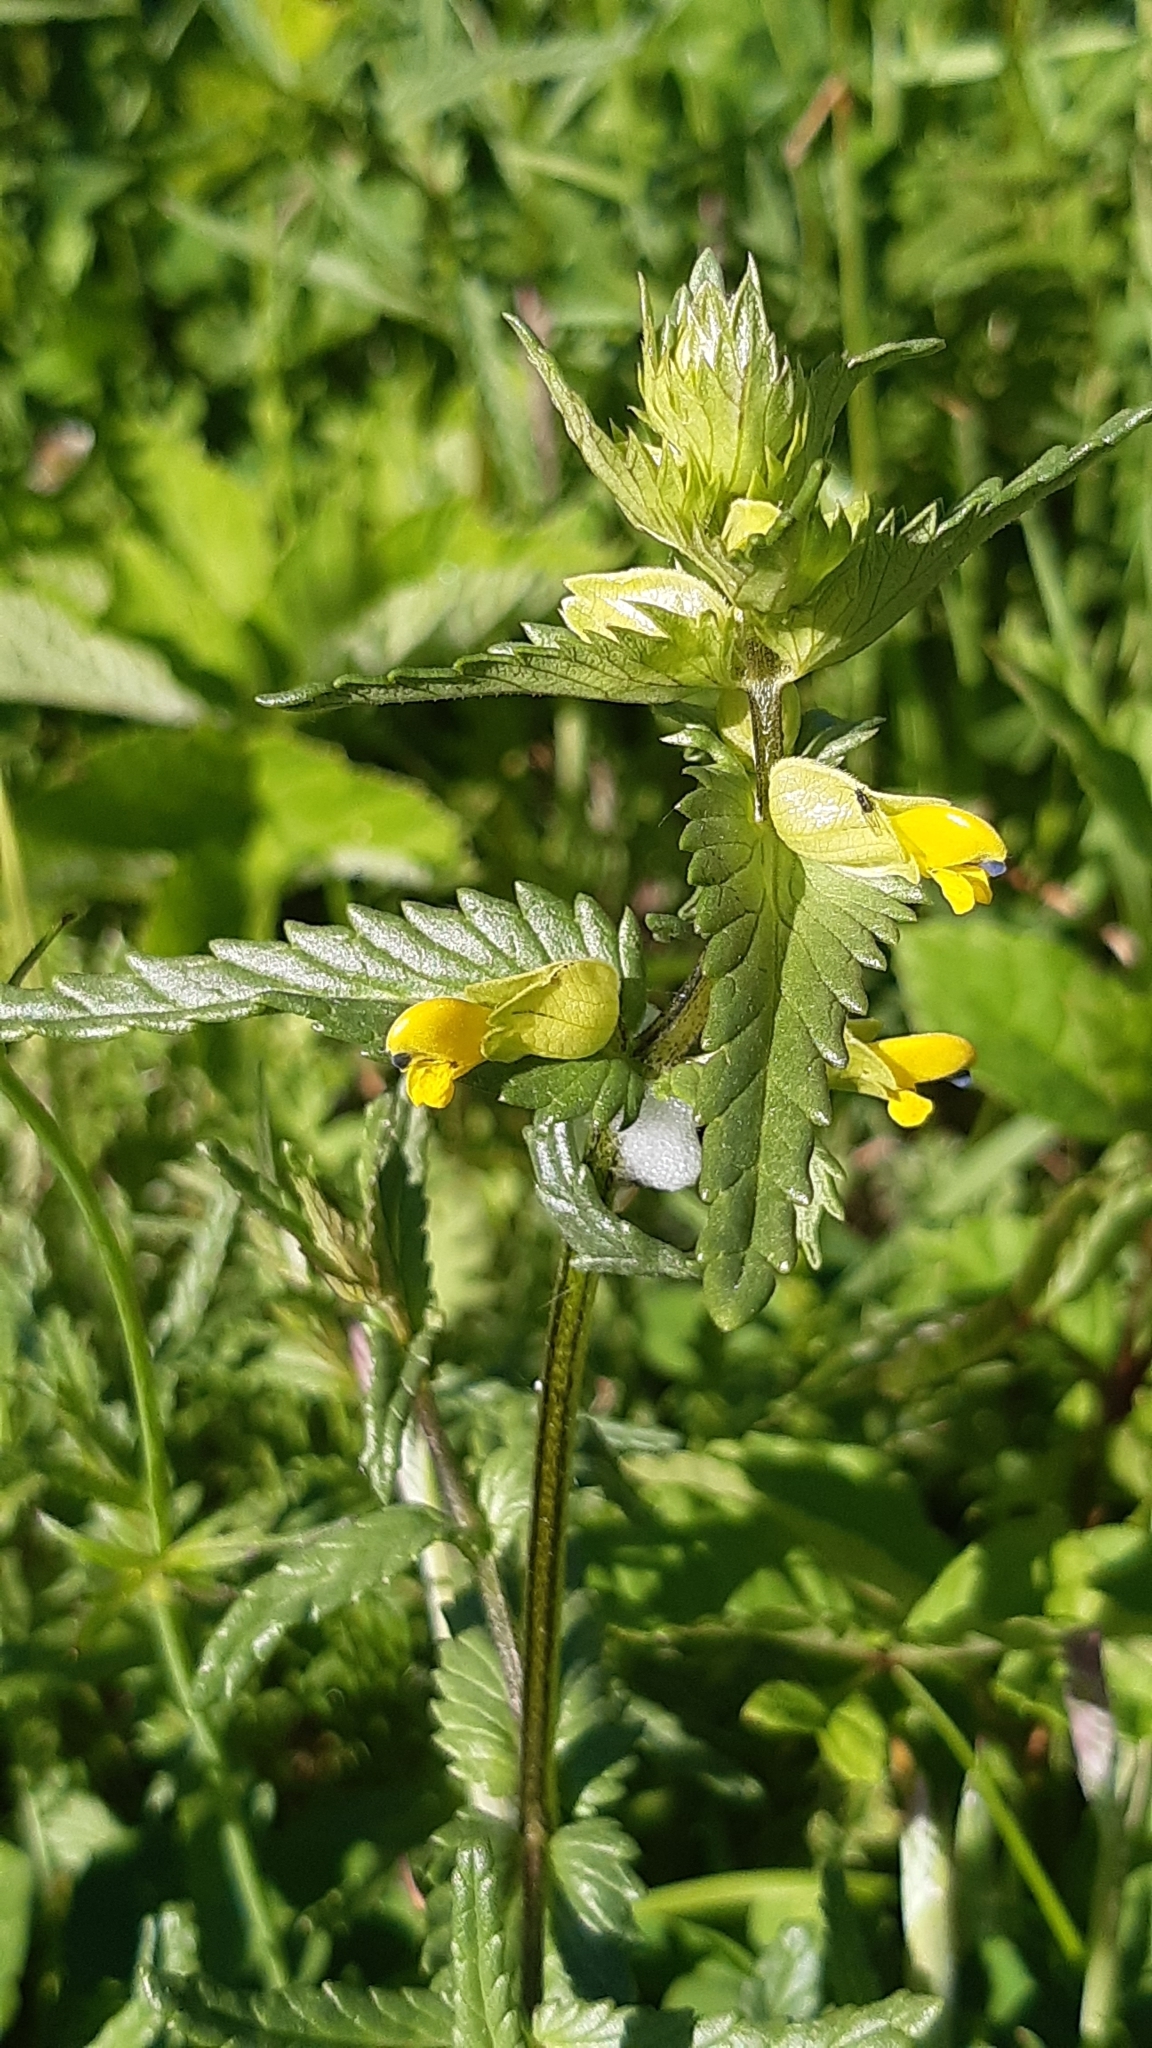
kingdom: Plantae
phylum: Tracheophyta
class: Magnoliopsida
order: Lamiales
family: Orobanchaceae
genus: Rhinanthus
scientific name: Rhinanthus minor
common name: Yellow-rattle
